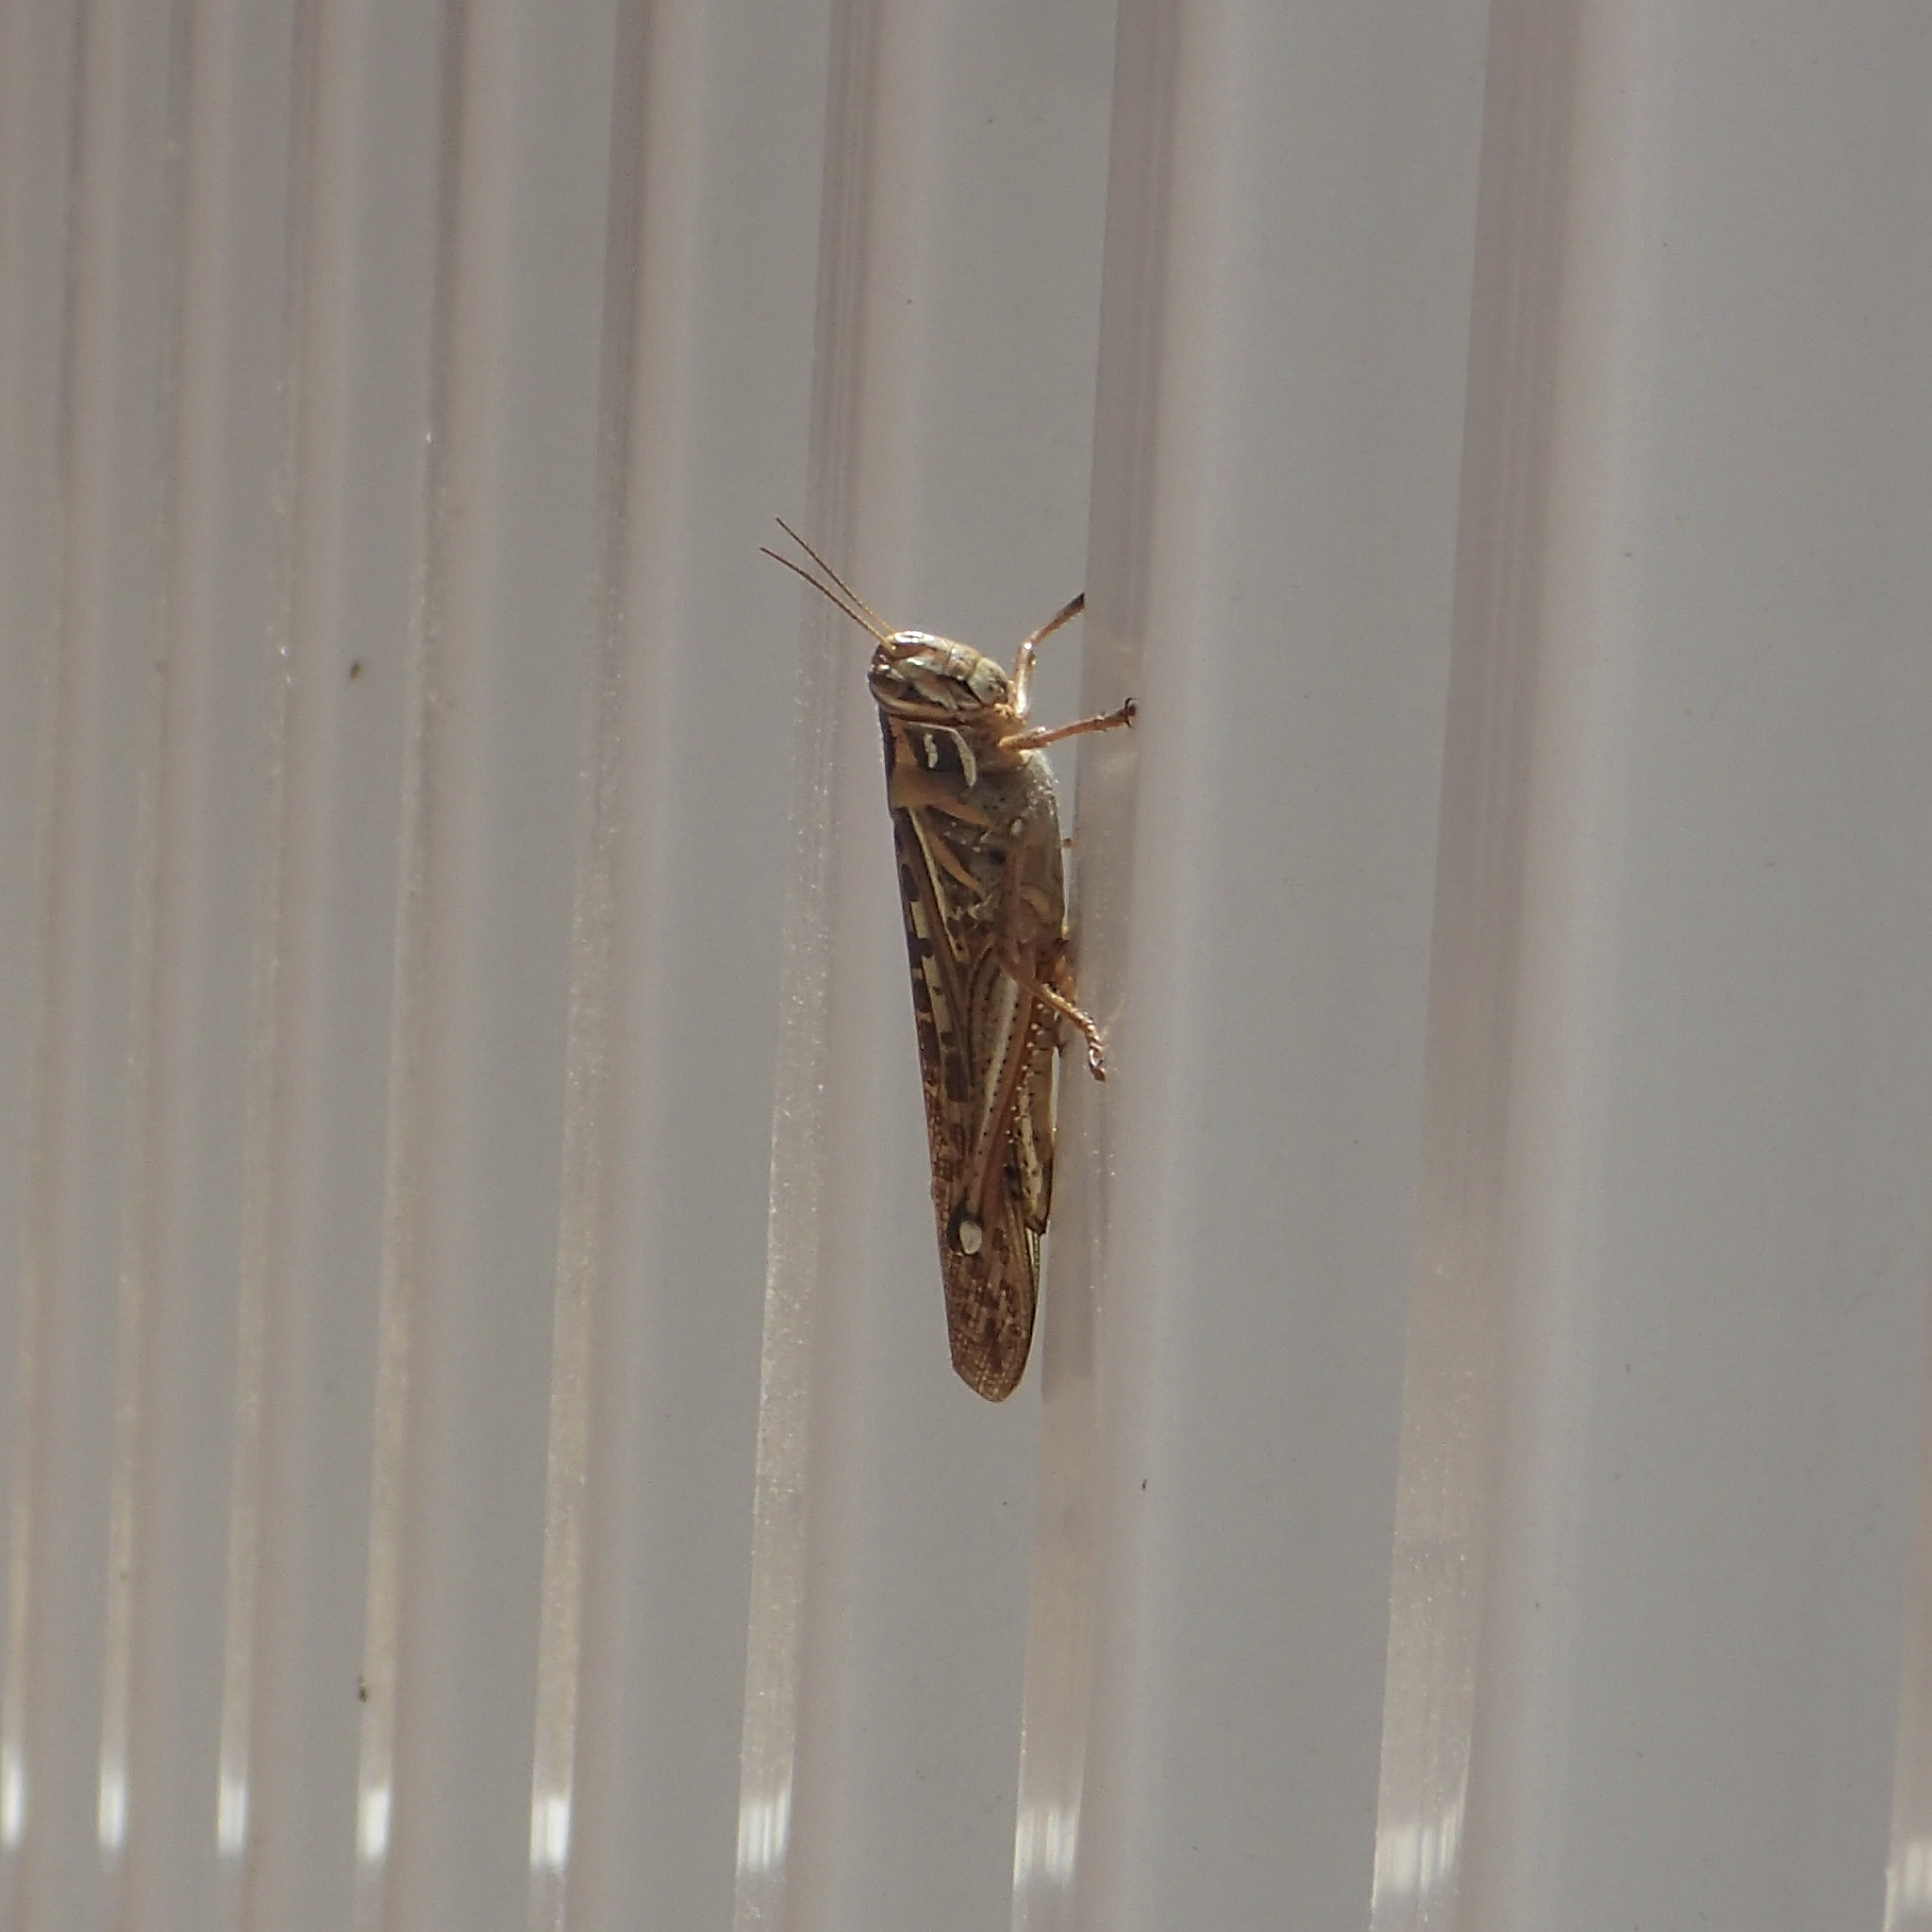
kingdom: Animalia
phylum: Arthropoda
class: Insecta
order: Orthoptera
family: Acrididae
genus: Schistocerca
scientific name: Schistocerca americana
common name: American bird locust
